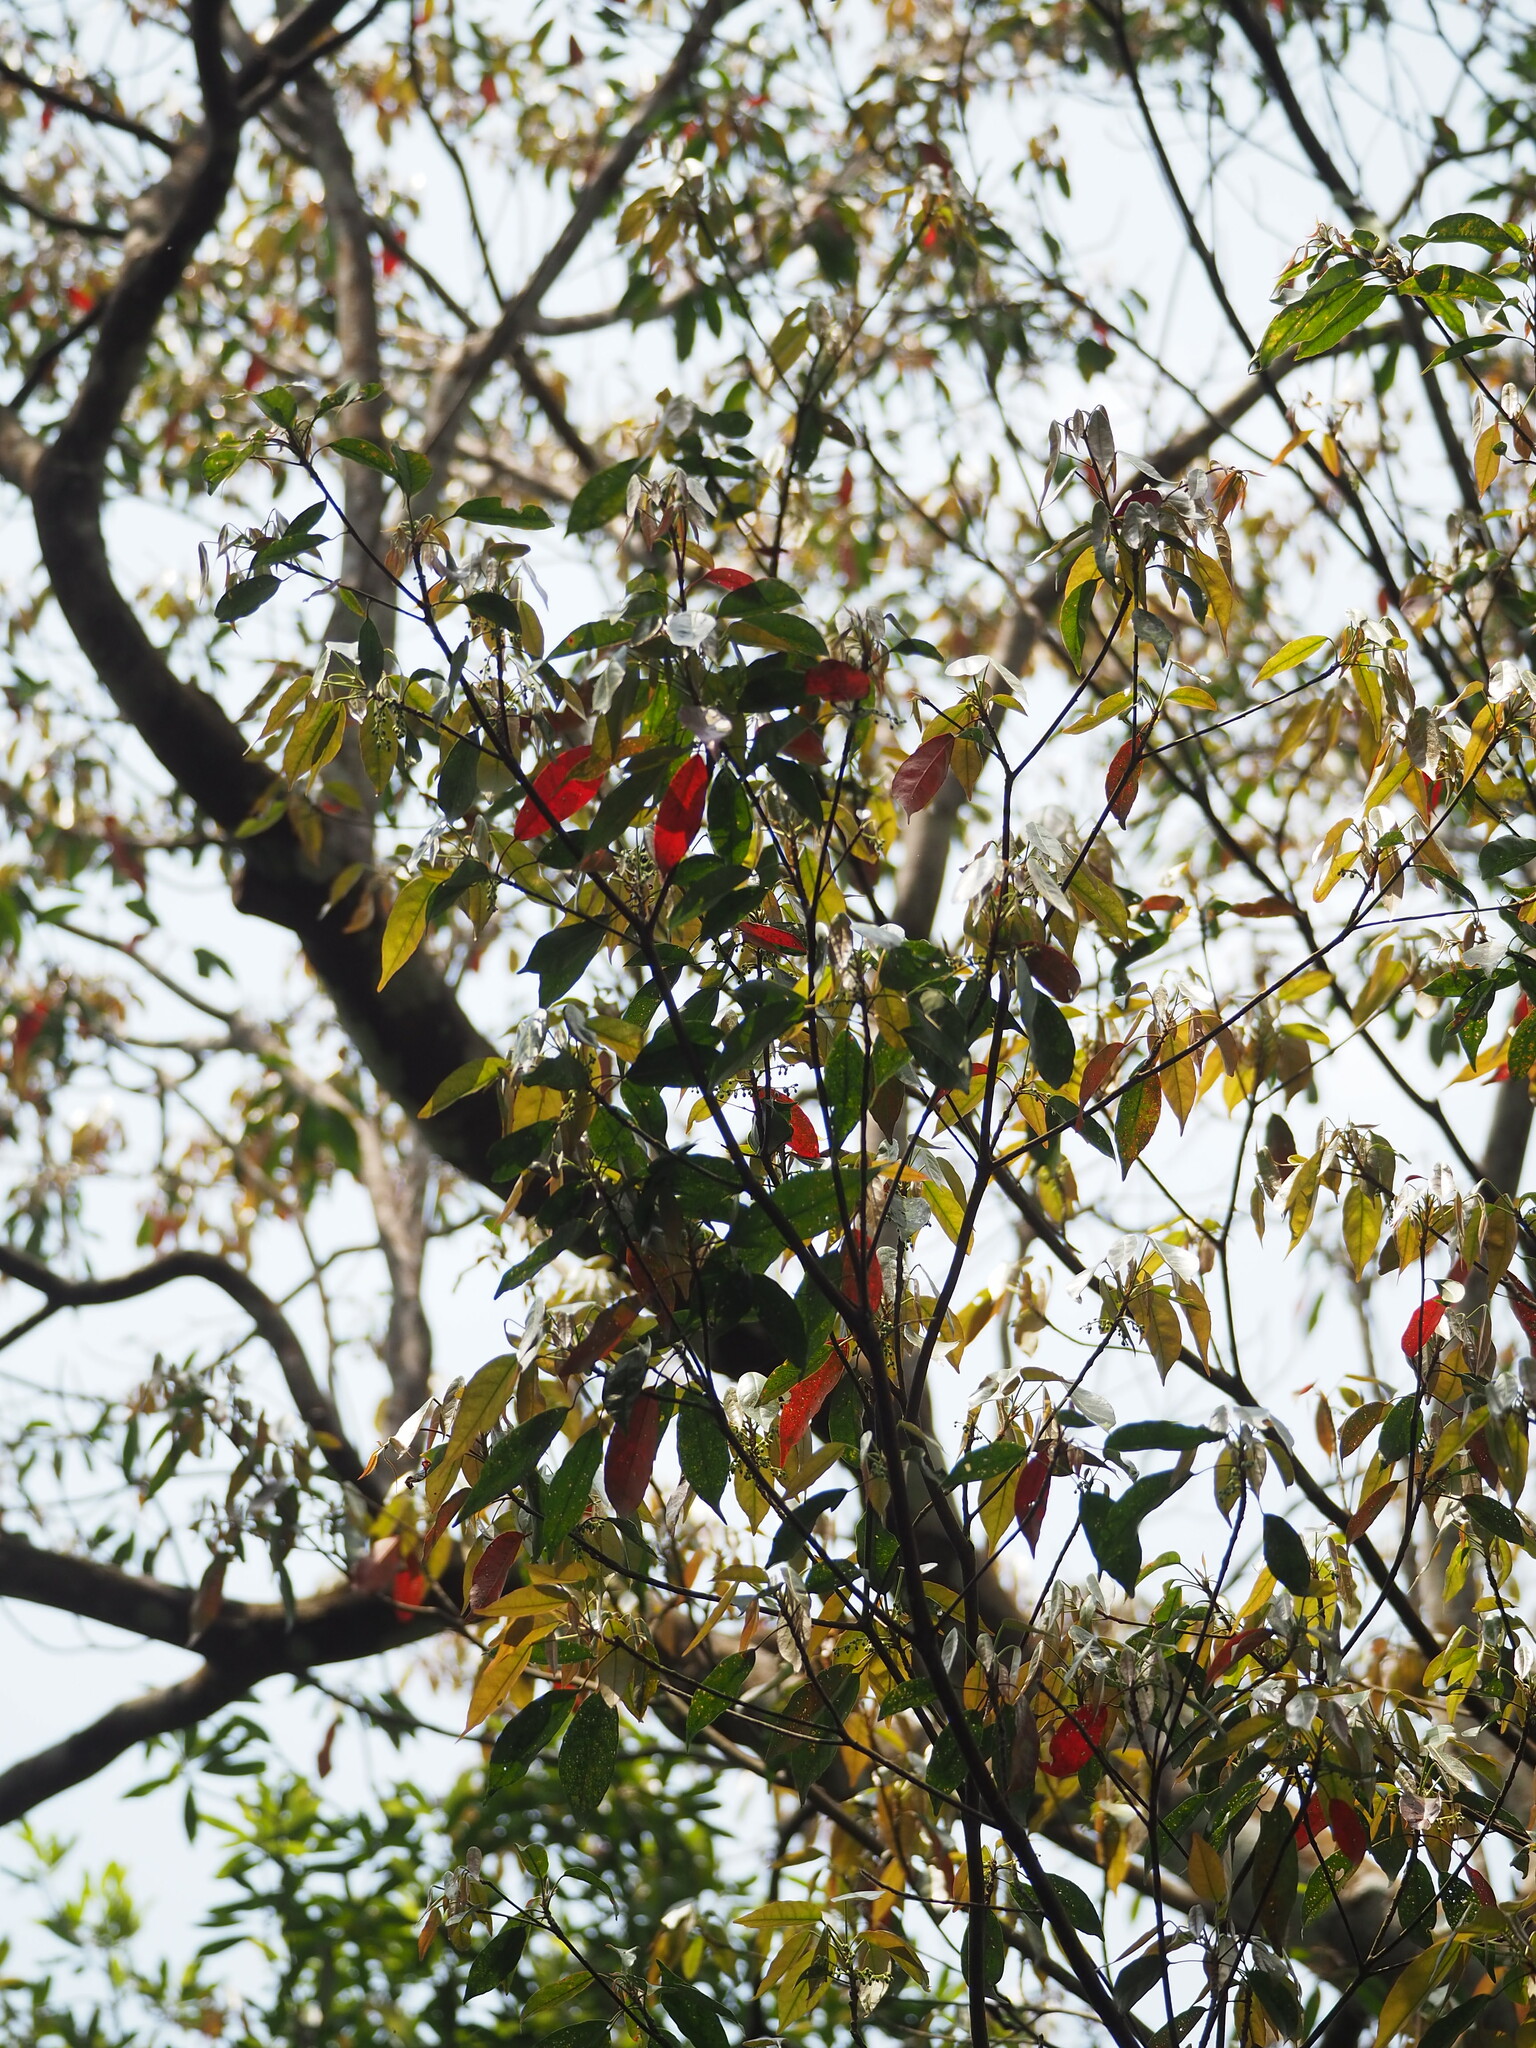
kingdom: Plantae
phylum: Tracheophyta
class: Magnoliopsida
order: Oxalidales
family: Elaeocarpaceae
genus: Elaeocarpus
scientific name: Elaeocarpus japonicus
